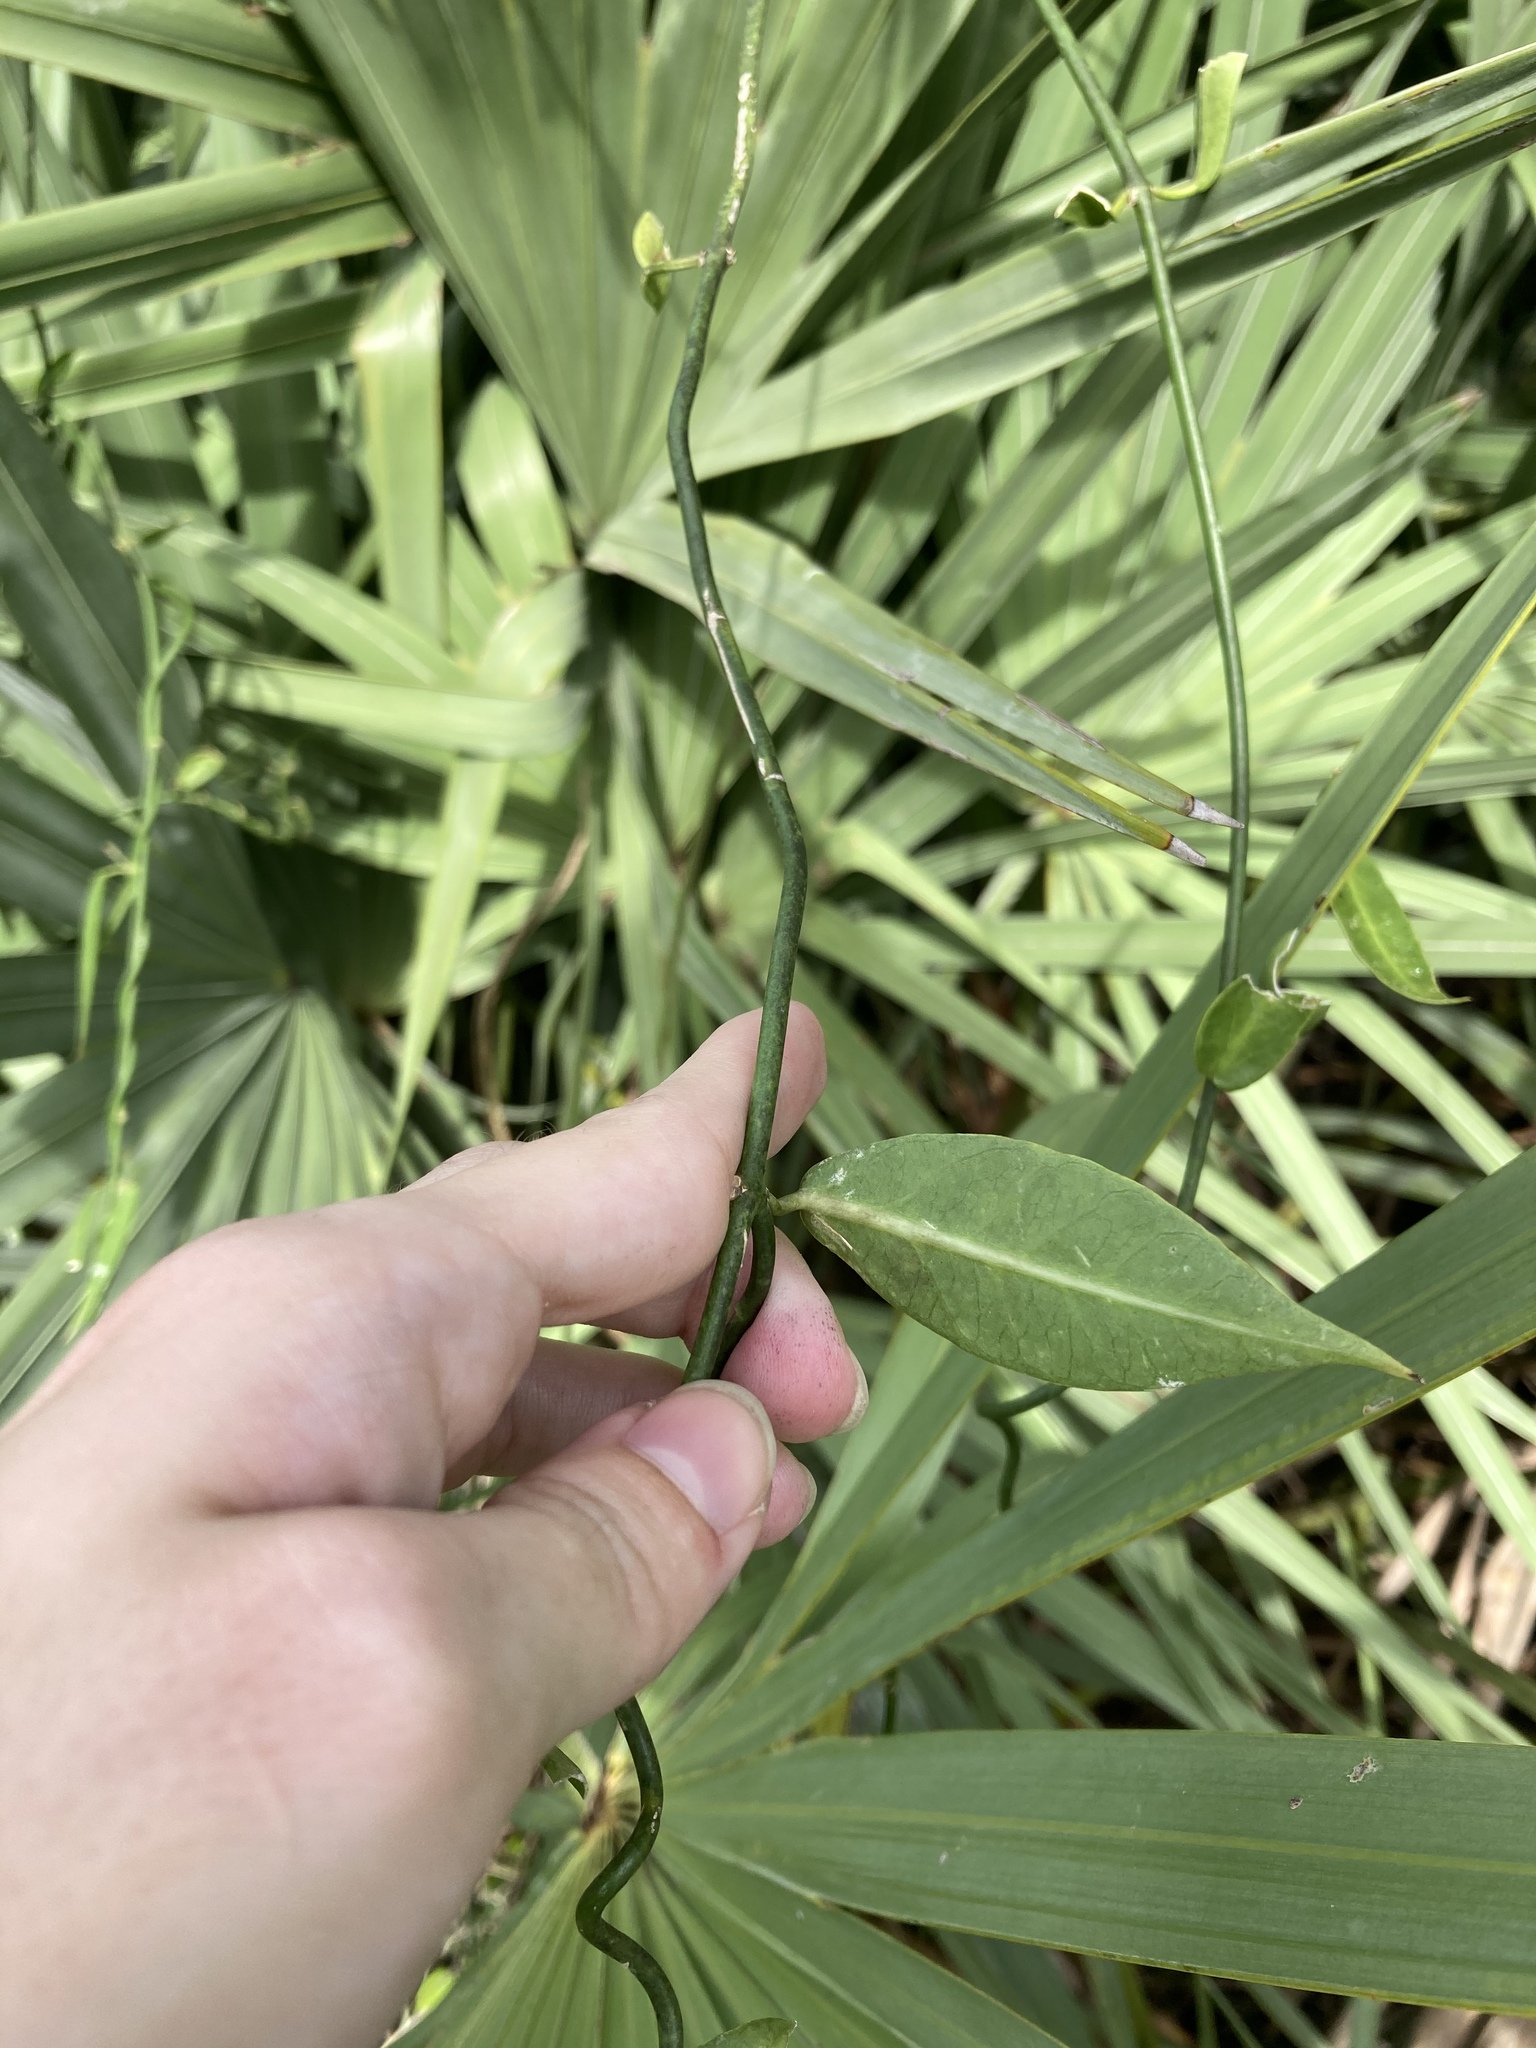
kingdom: Plantae
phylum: Tracheophyta
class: Magnoliopsida
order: Gentianales
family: Apocynaceae
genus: Funastrum
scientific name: Funastrum clausum
